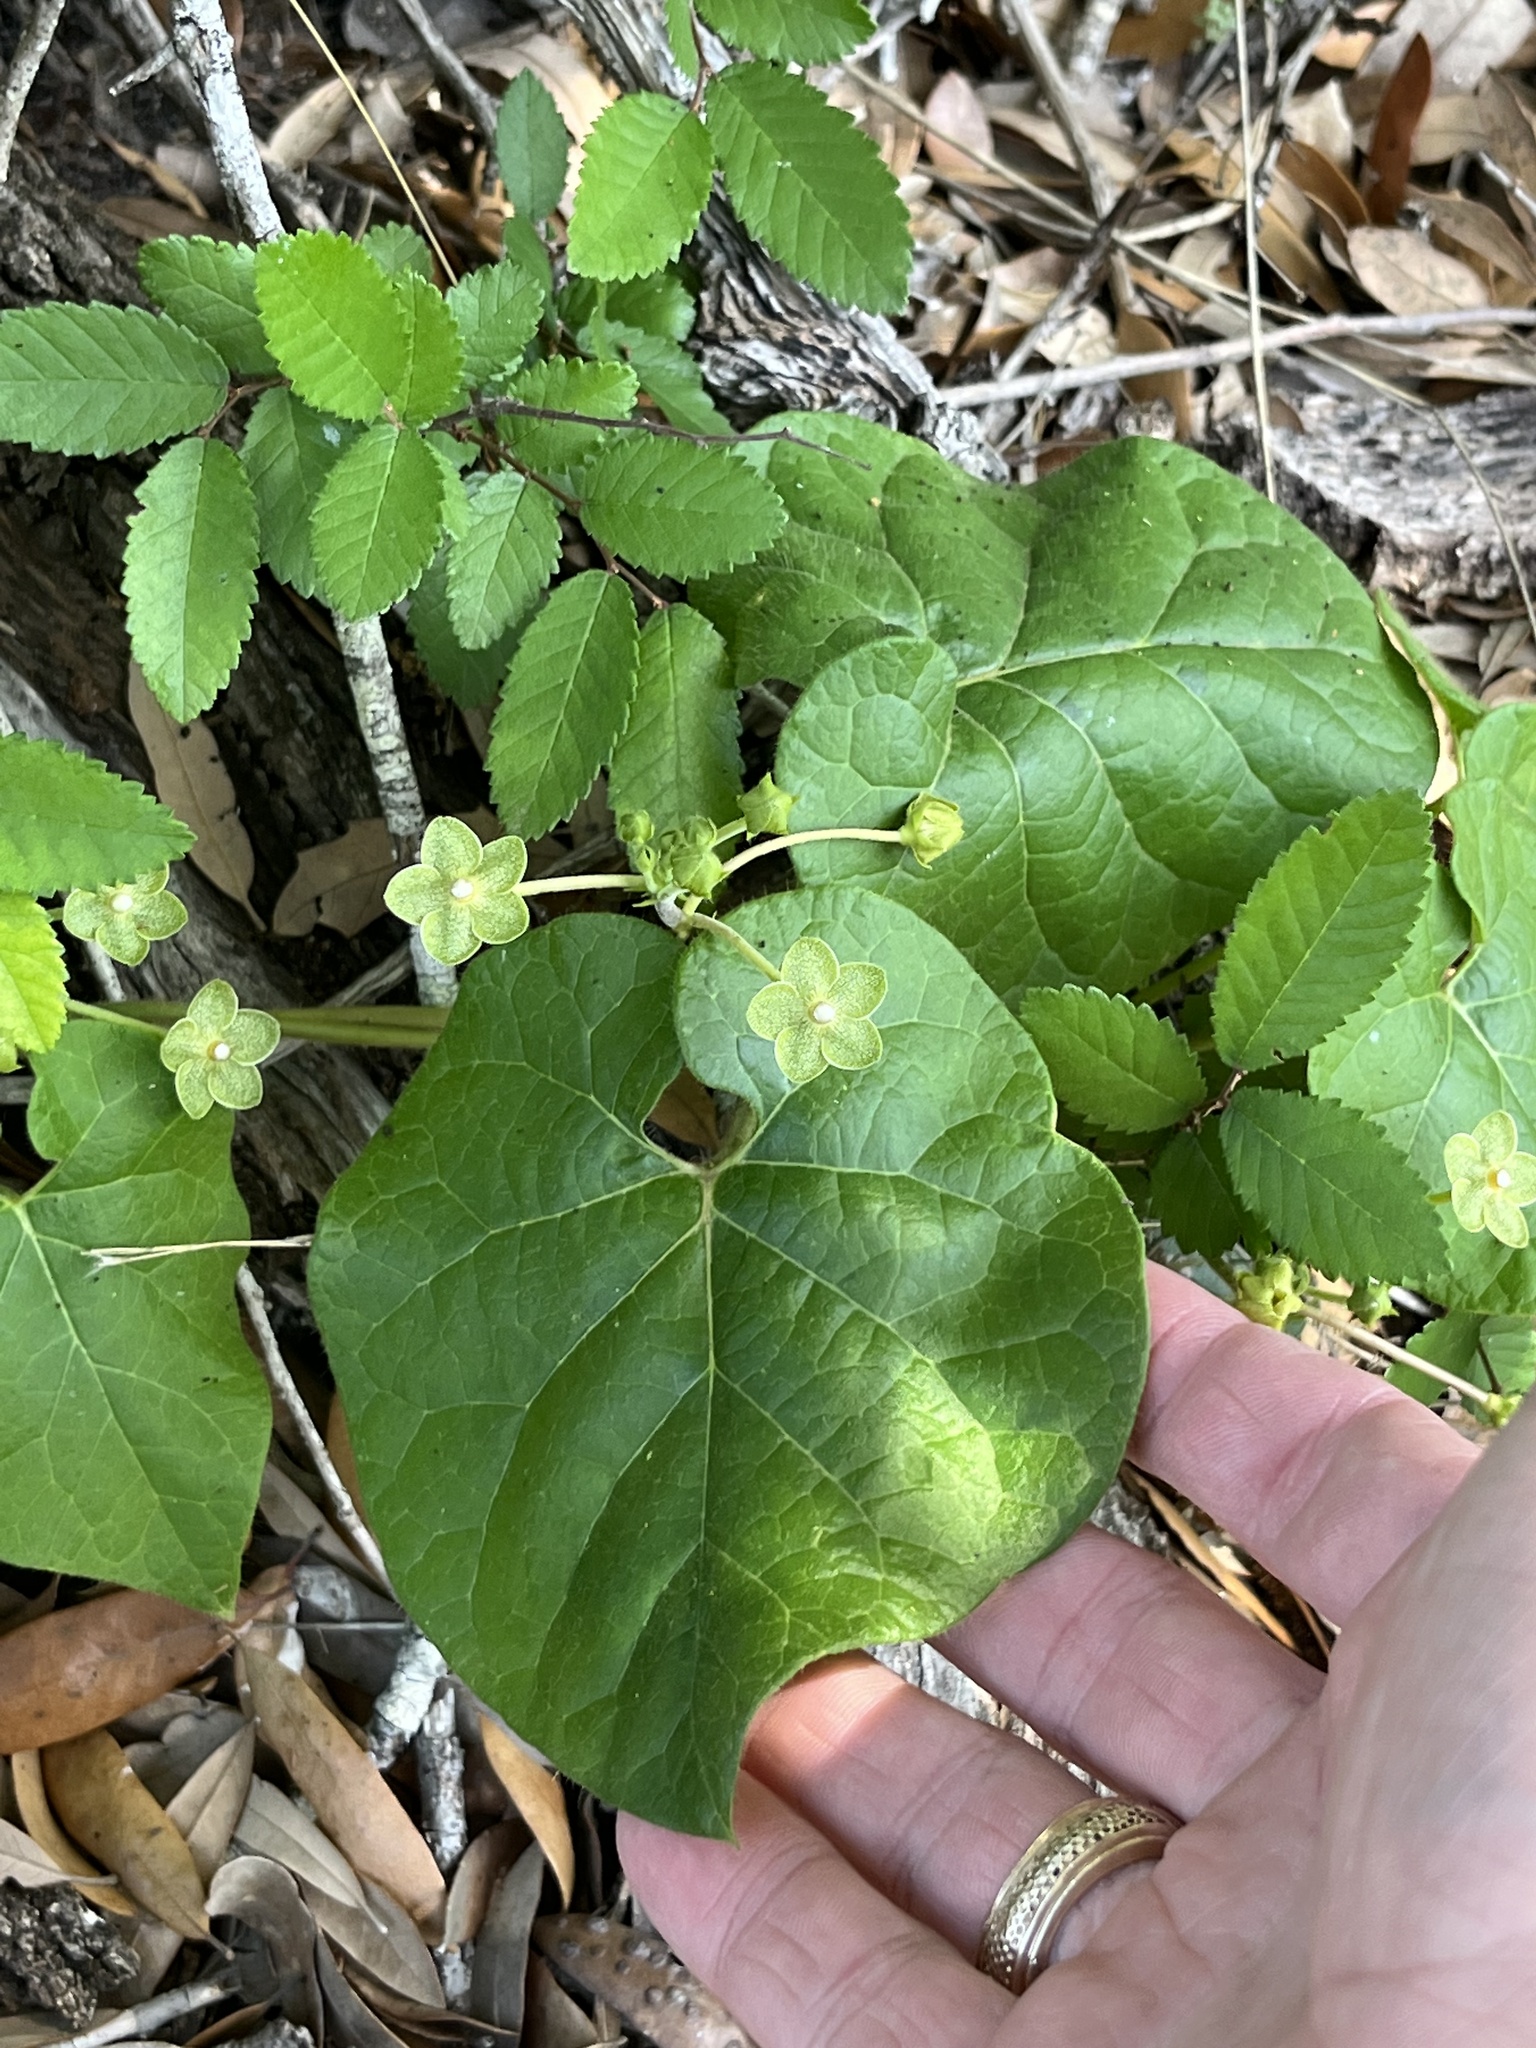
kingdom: Plantae
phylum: Tracheophyta
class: Magnoliopsida
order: Gentianales
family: Apocynaceae
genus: Dictyanthus
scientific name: Dictyanthus reticulatus
